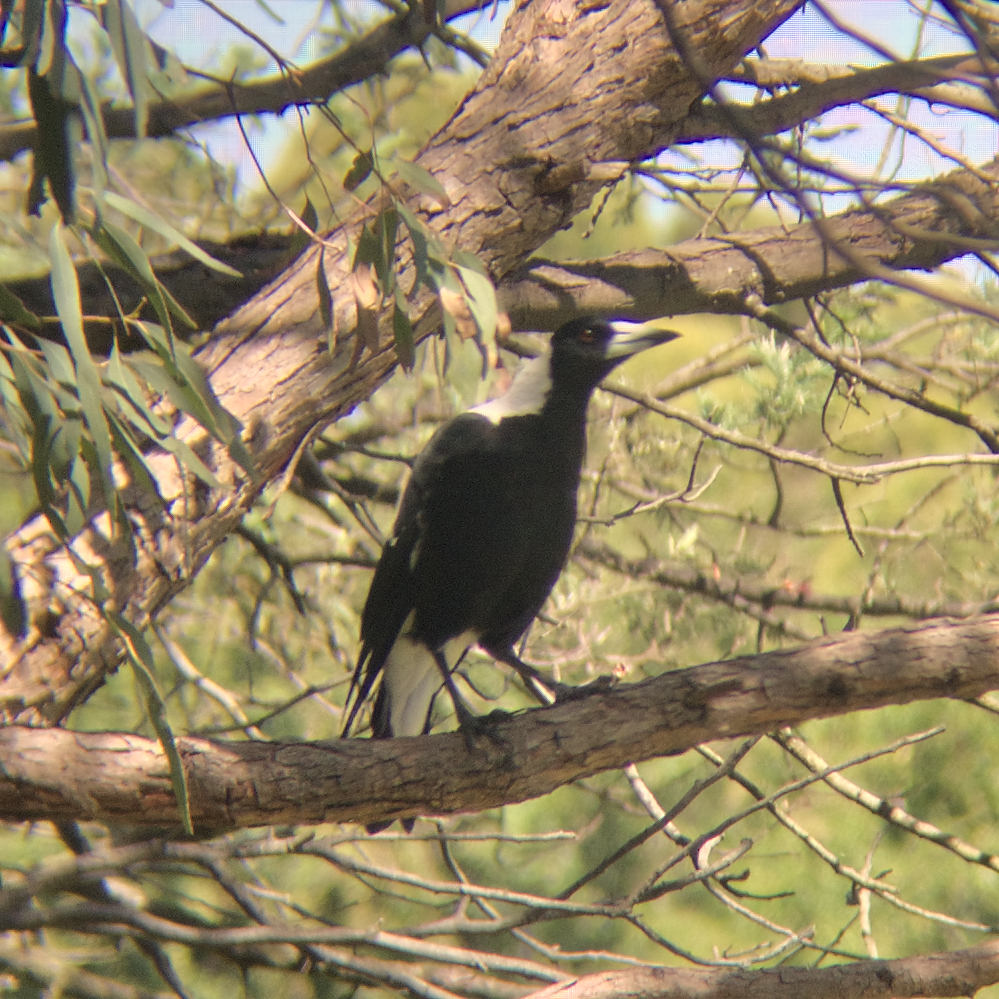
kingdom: Animalia
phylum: Chordata
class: Aves
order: Passeriformes
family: Cracticidae
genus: Gymnorhina
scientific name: Gymnorhina tibicen
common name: Australian magpie
